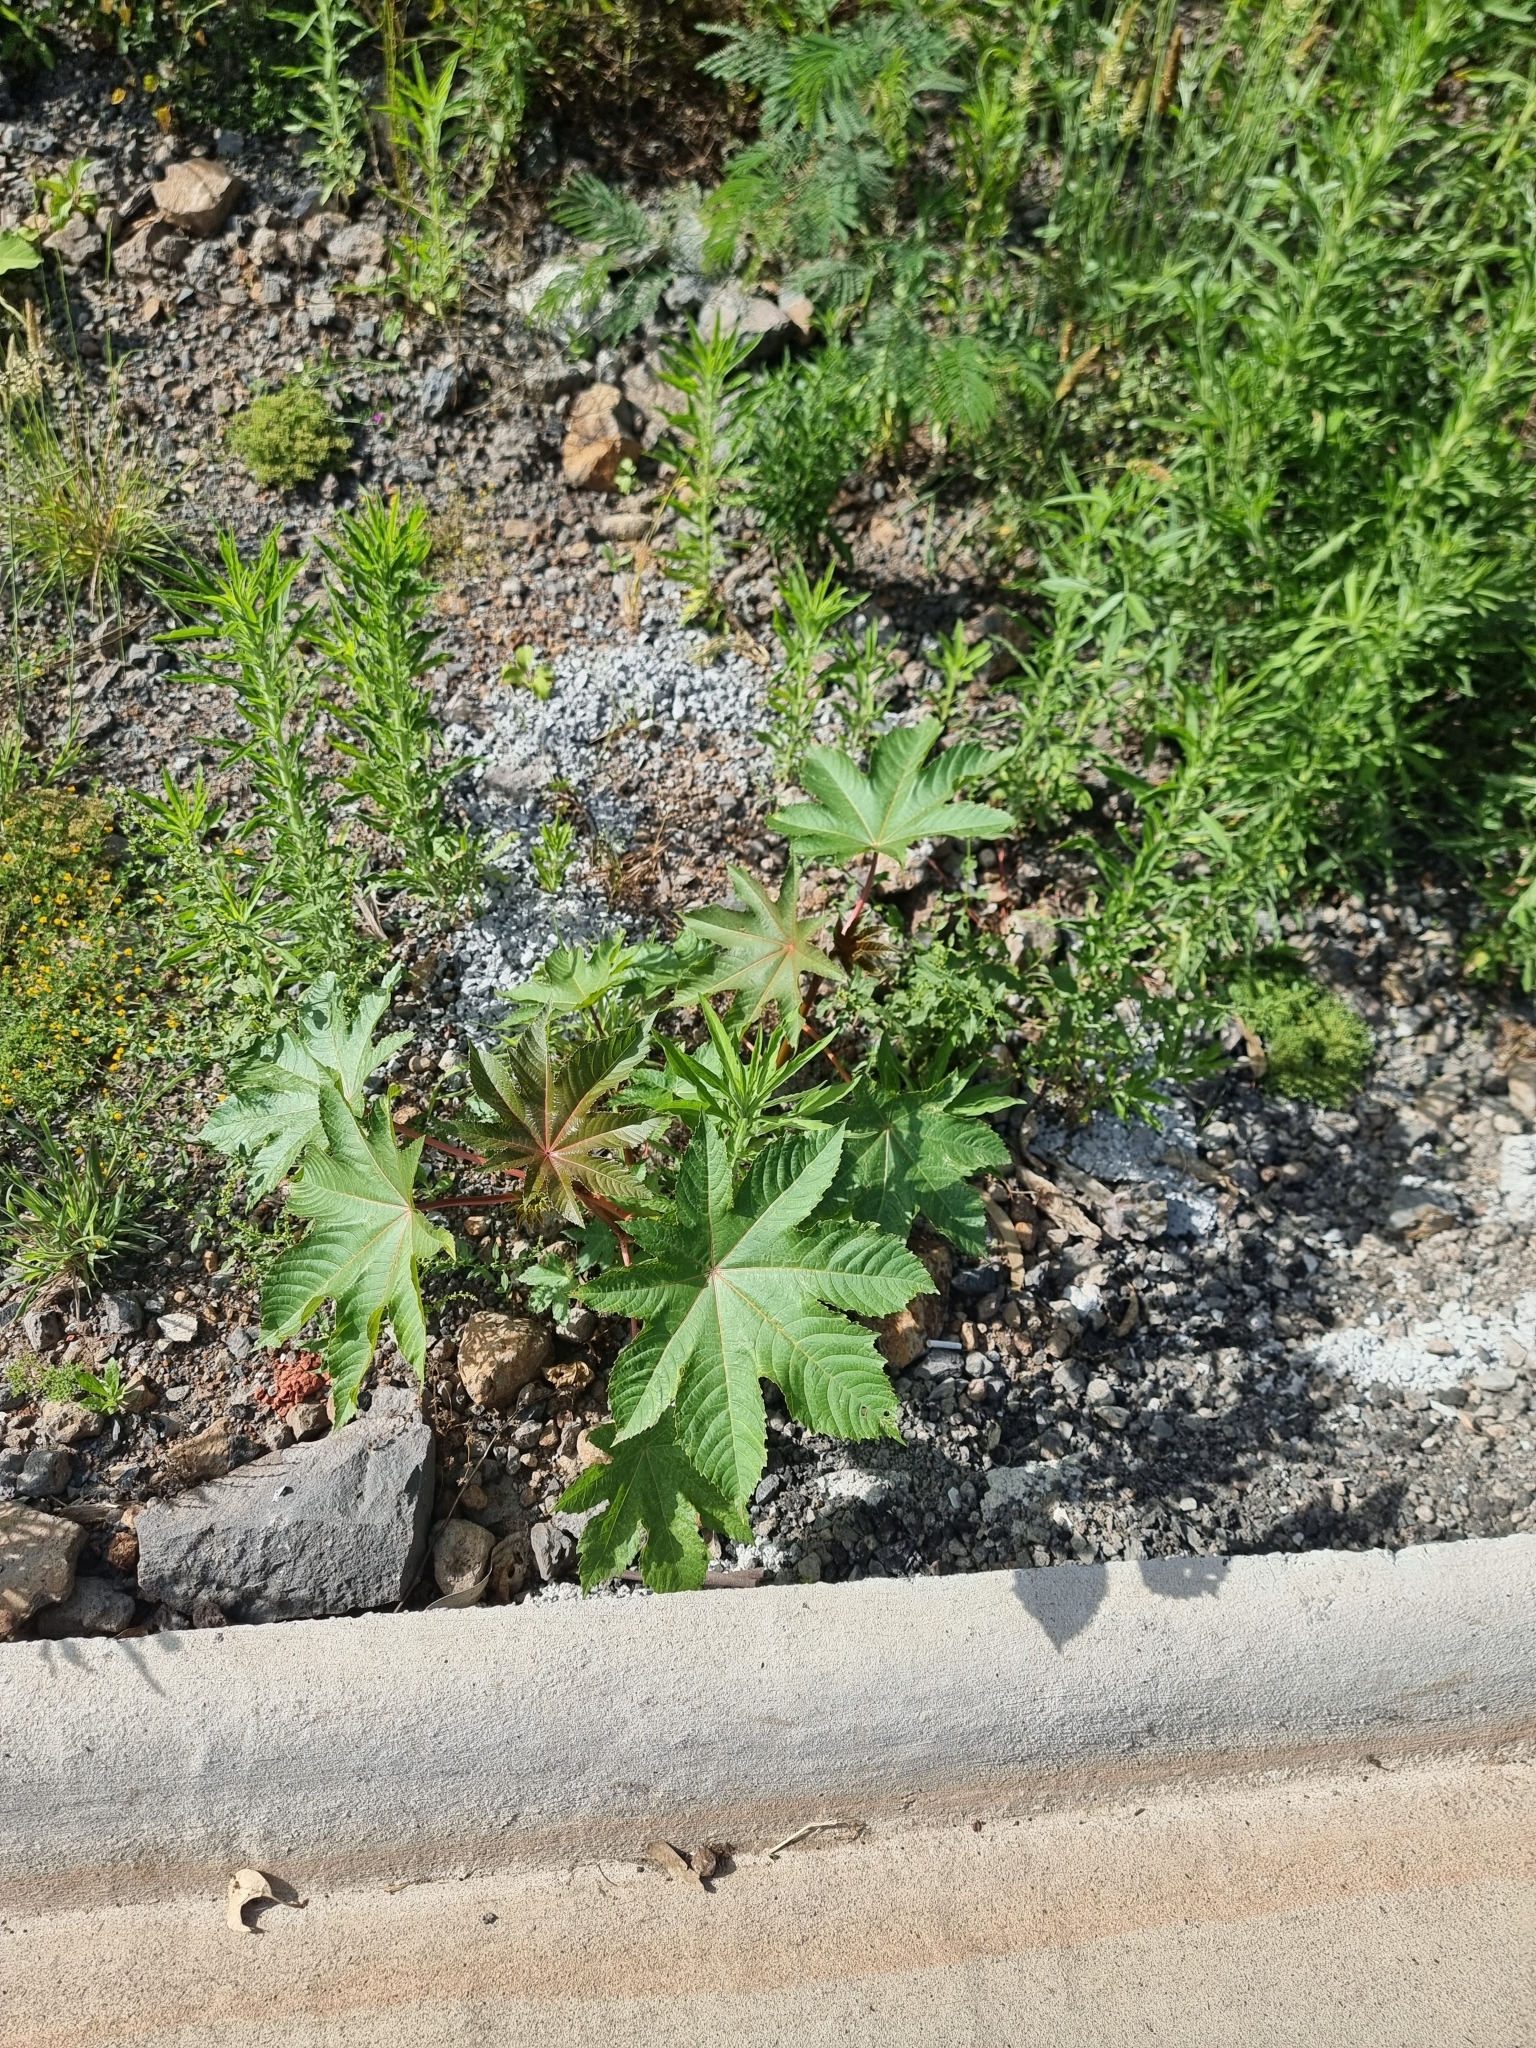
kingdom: Plantae
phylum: Tracheophyta
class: Magnoliopsida
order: Malpighiales
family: Euphorbiaceae
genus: Ricinus
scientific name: Ricinus communis
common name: Castor-oil-plant
